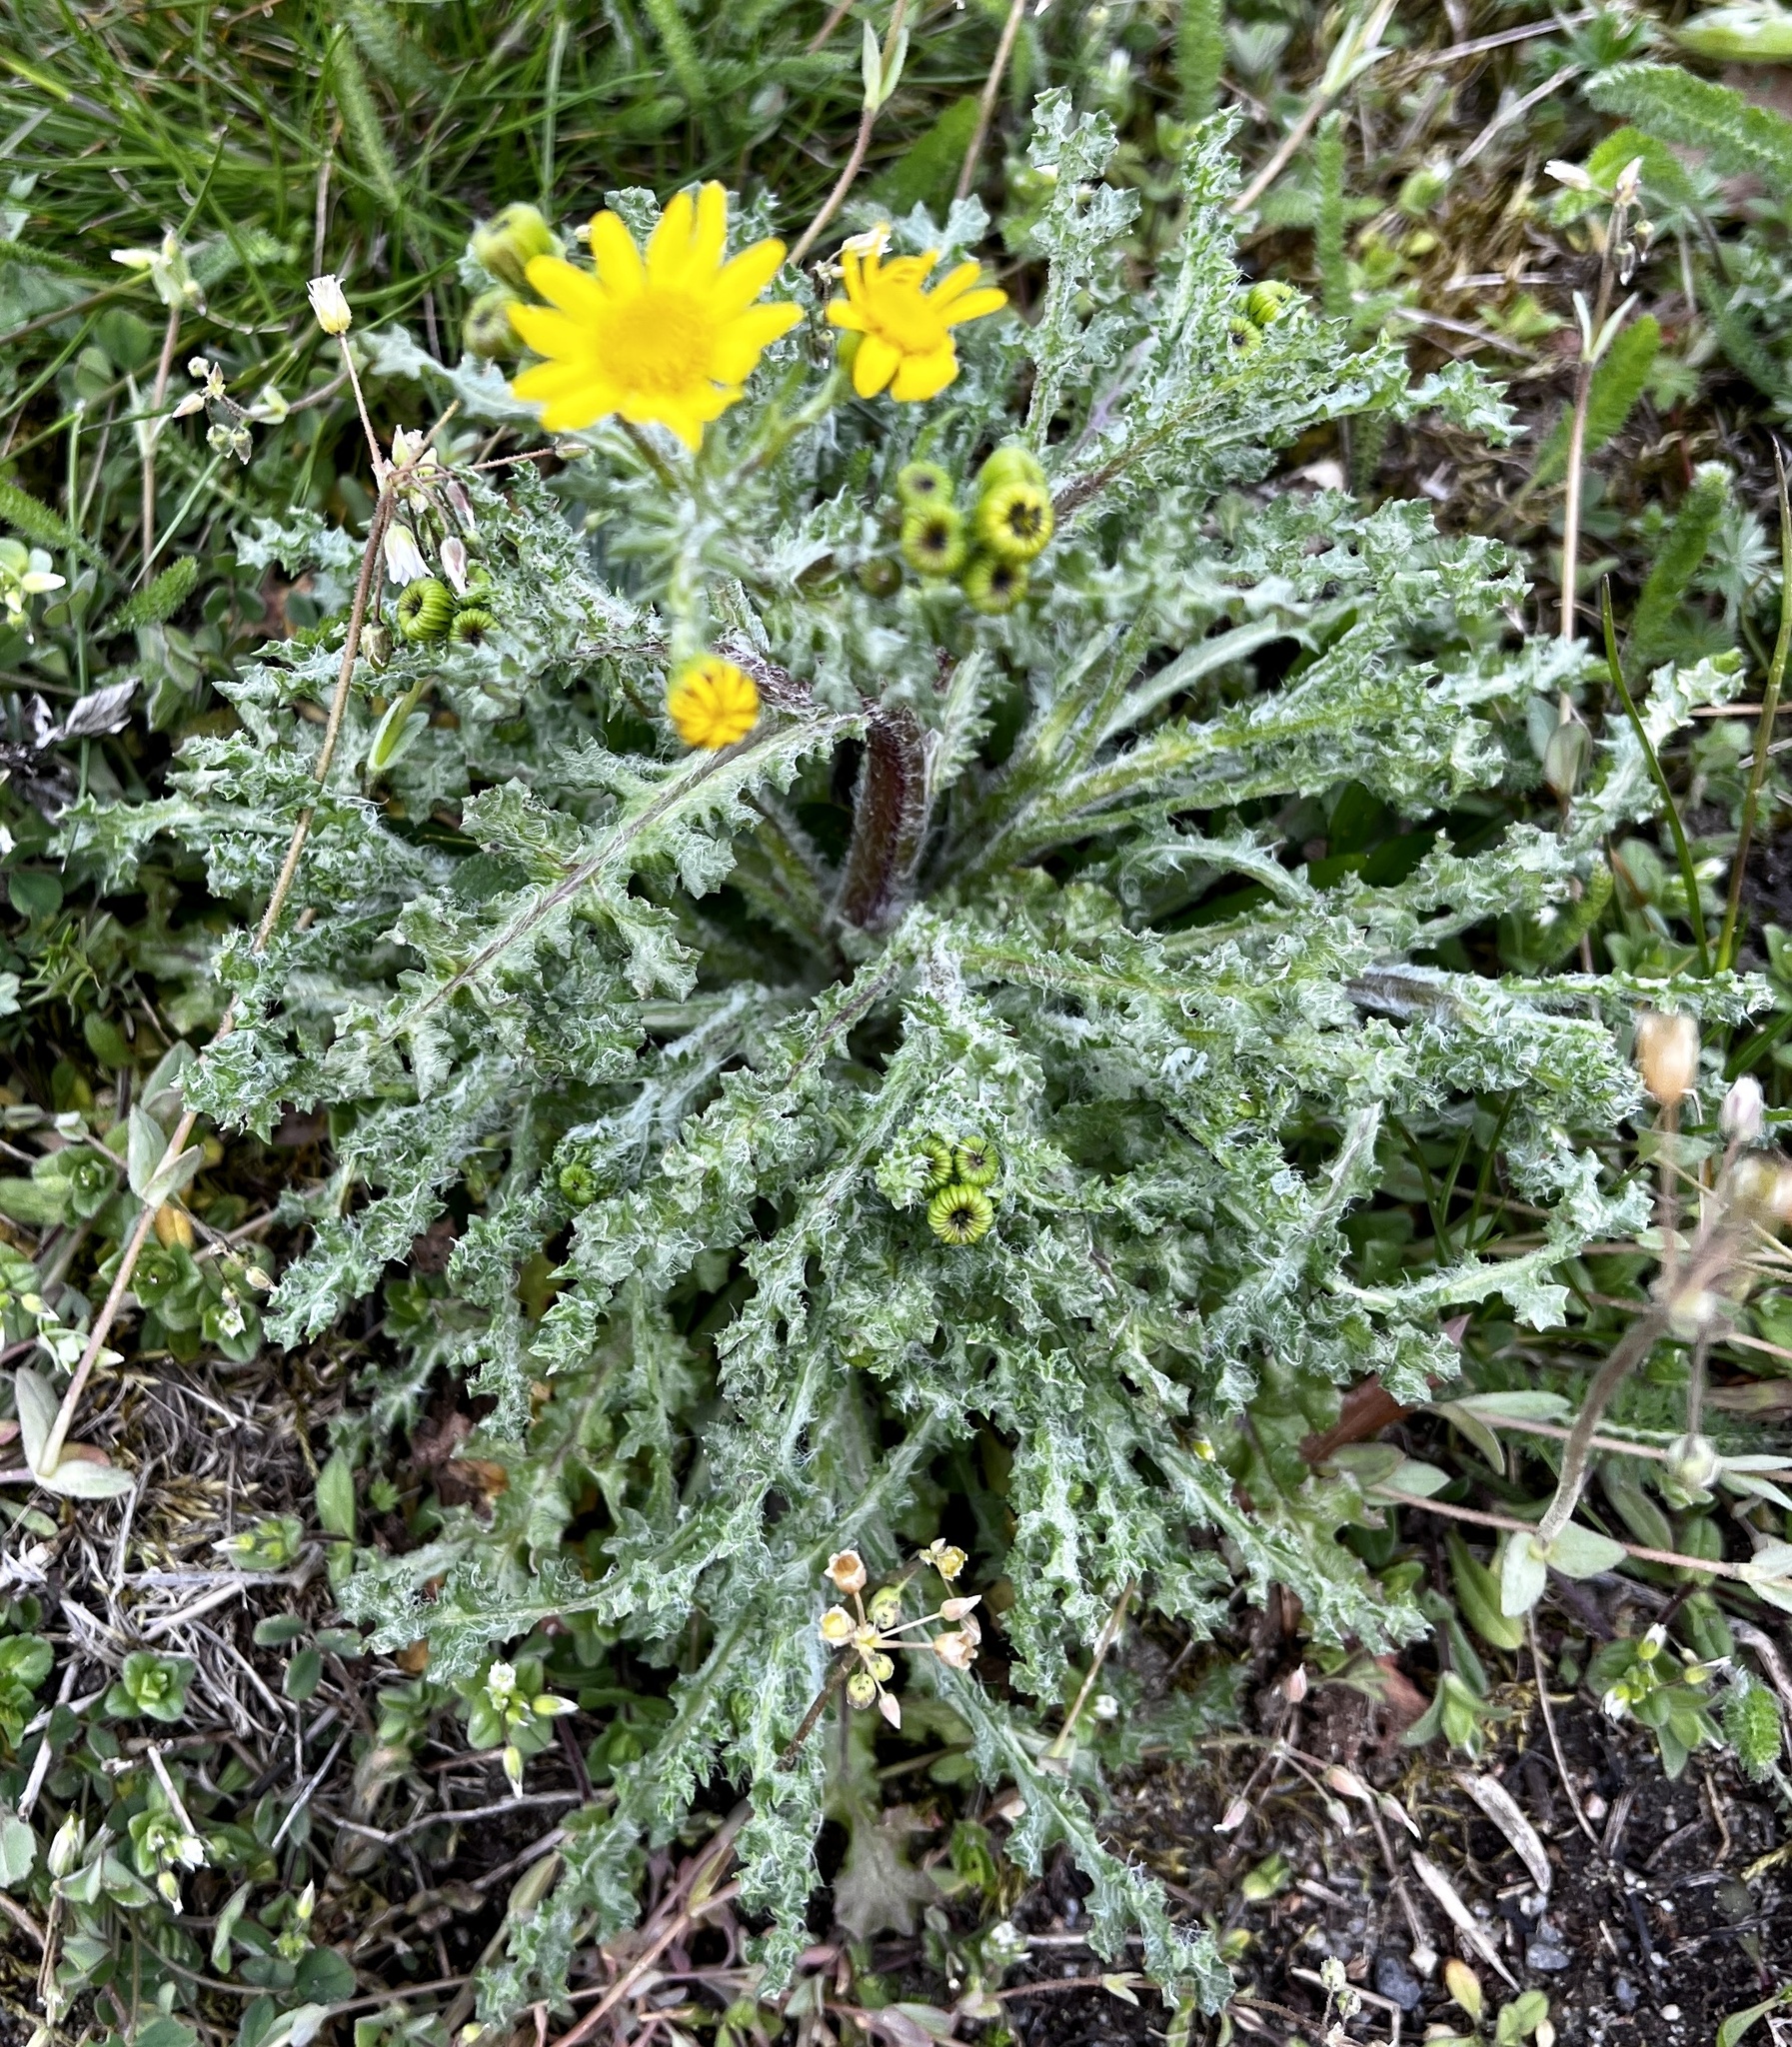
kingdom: Plantae
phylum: Tracheophyta
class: Magnoliopsida
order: Asterales
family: Asteraceae
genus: Senecio
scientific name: Senecio vernalis
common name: Eastern groundsel
